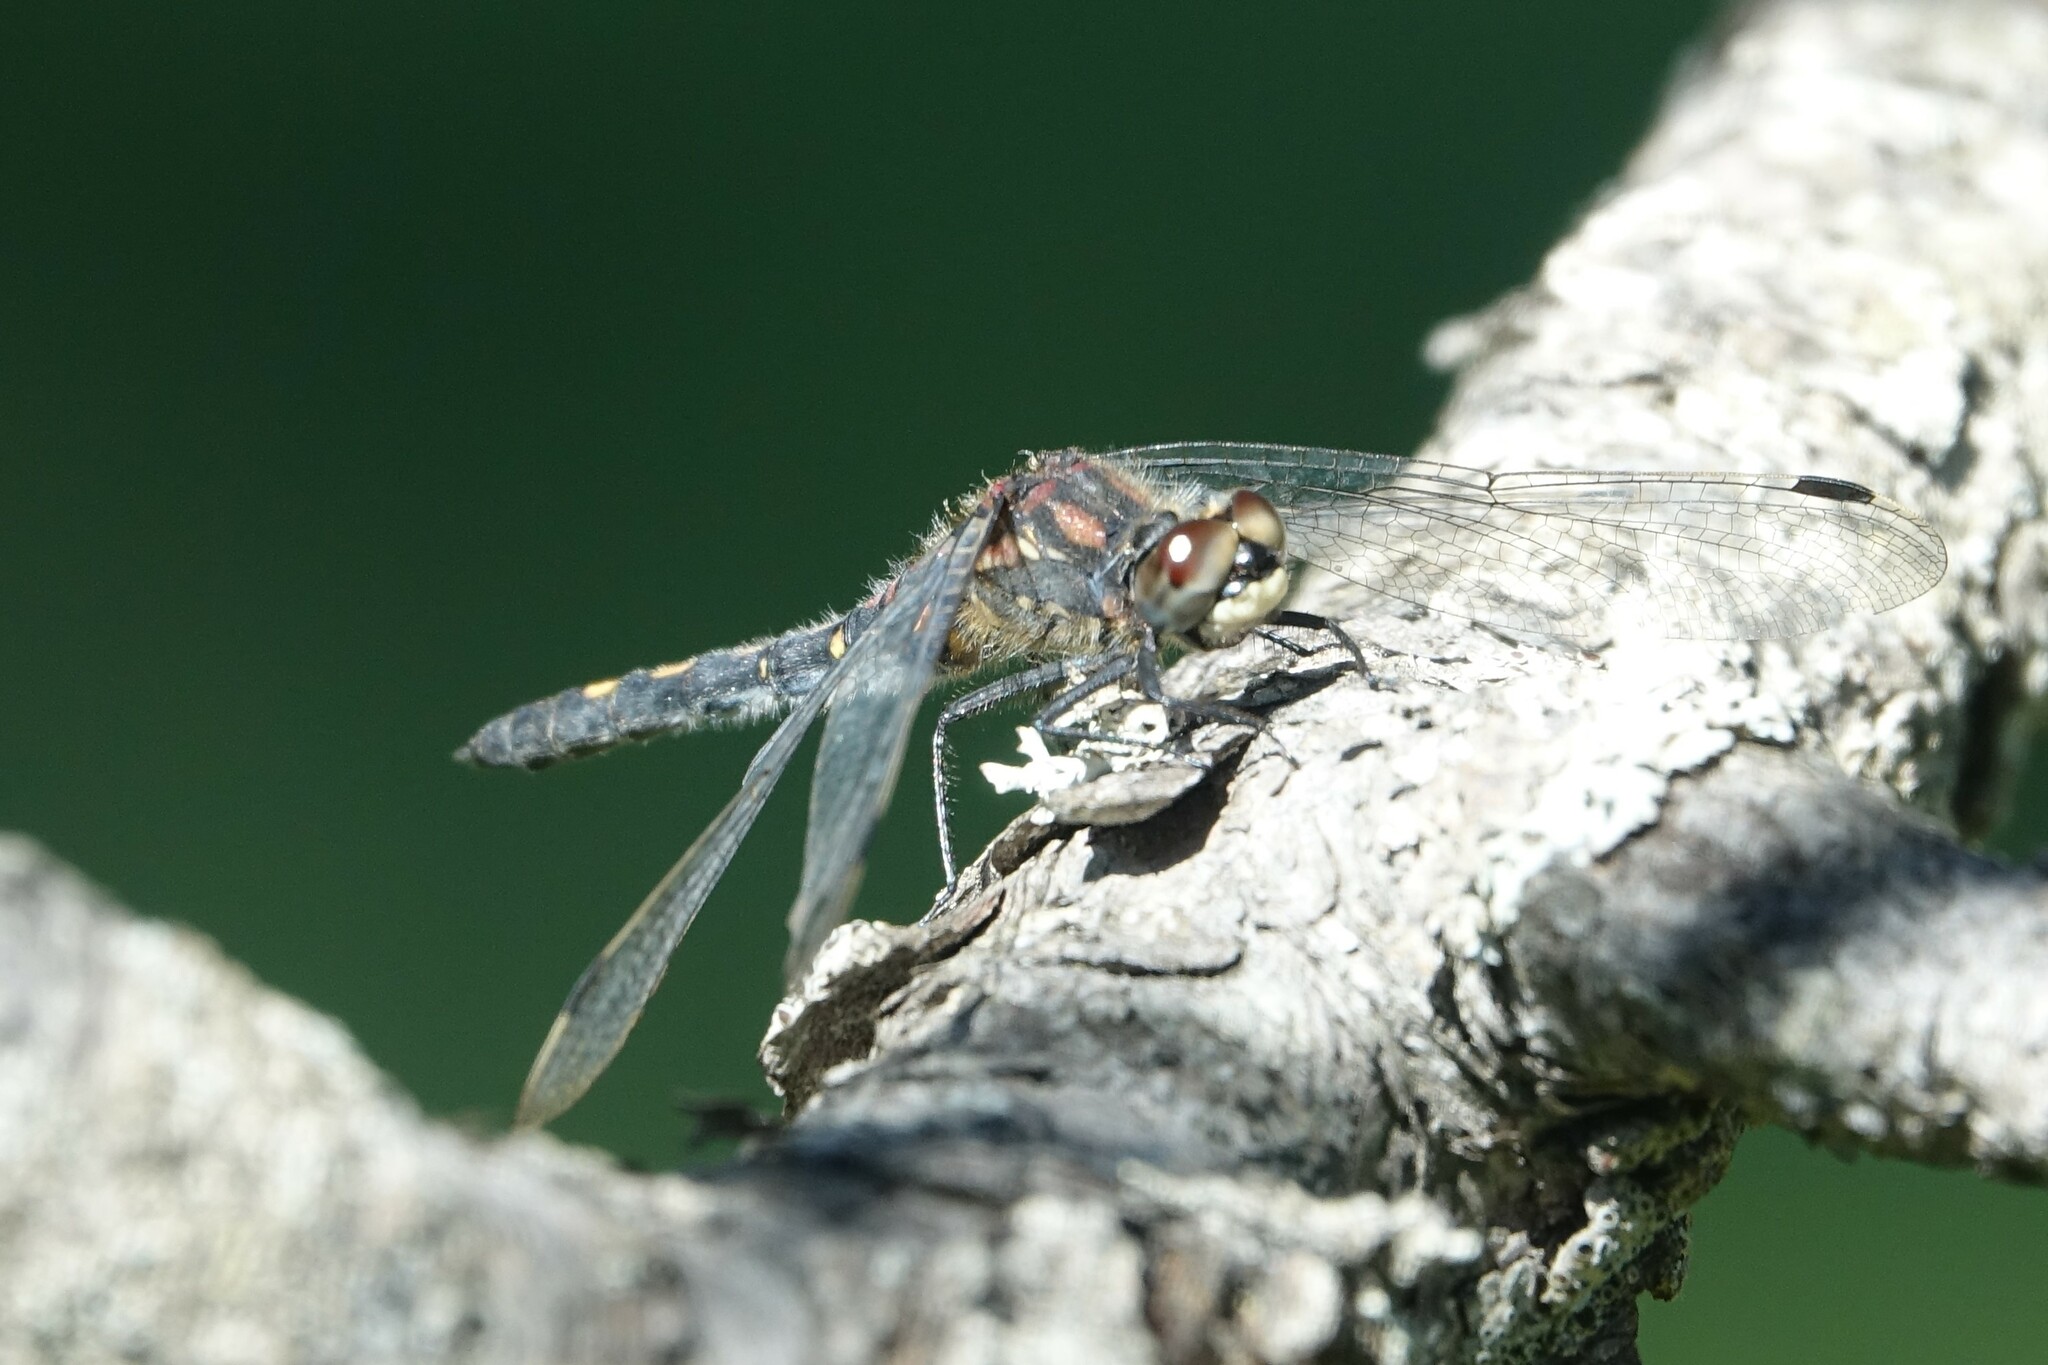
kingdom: Animalia
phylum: Arthropoda
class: Insecta
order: Odonata
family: Libellulidae
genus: Leucorrhinia
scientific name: Leucorrhinia dubia
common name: White-faced darter
